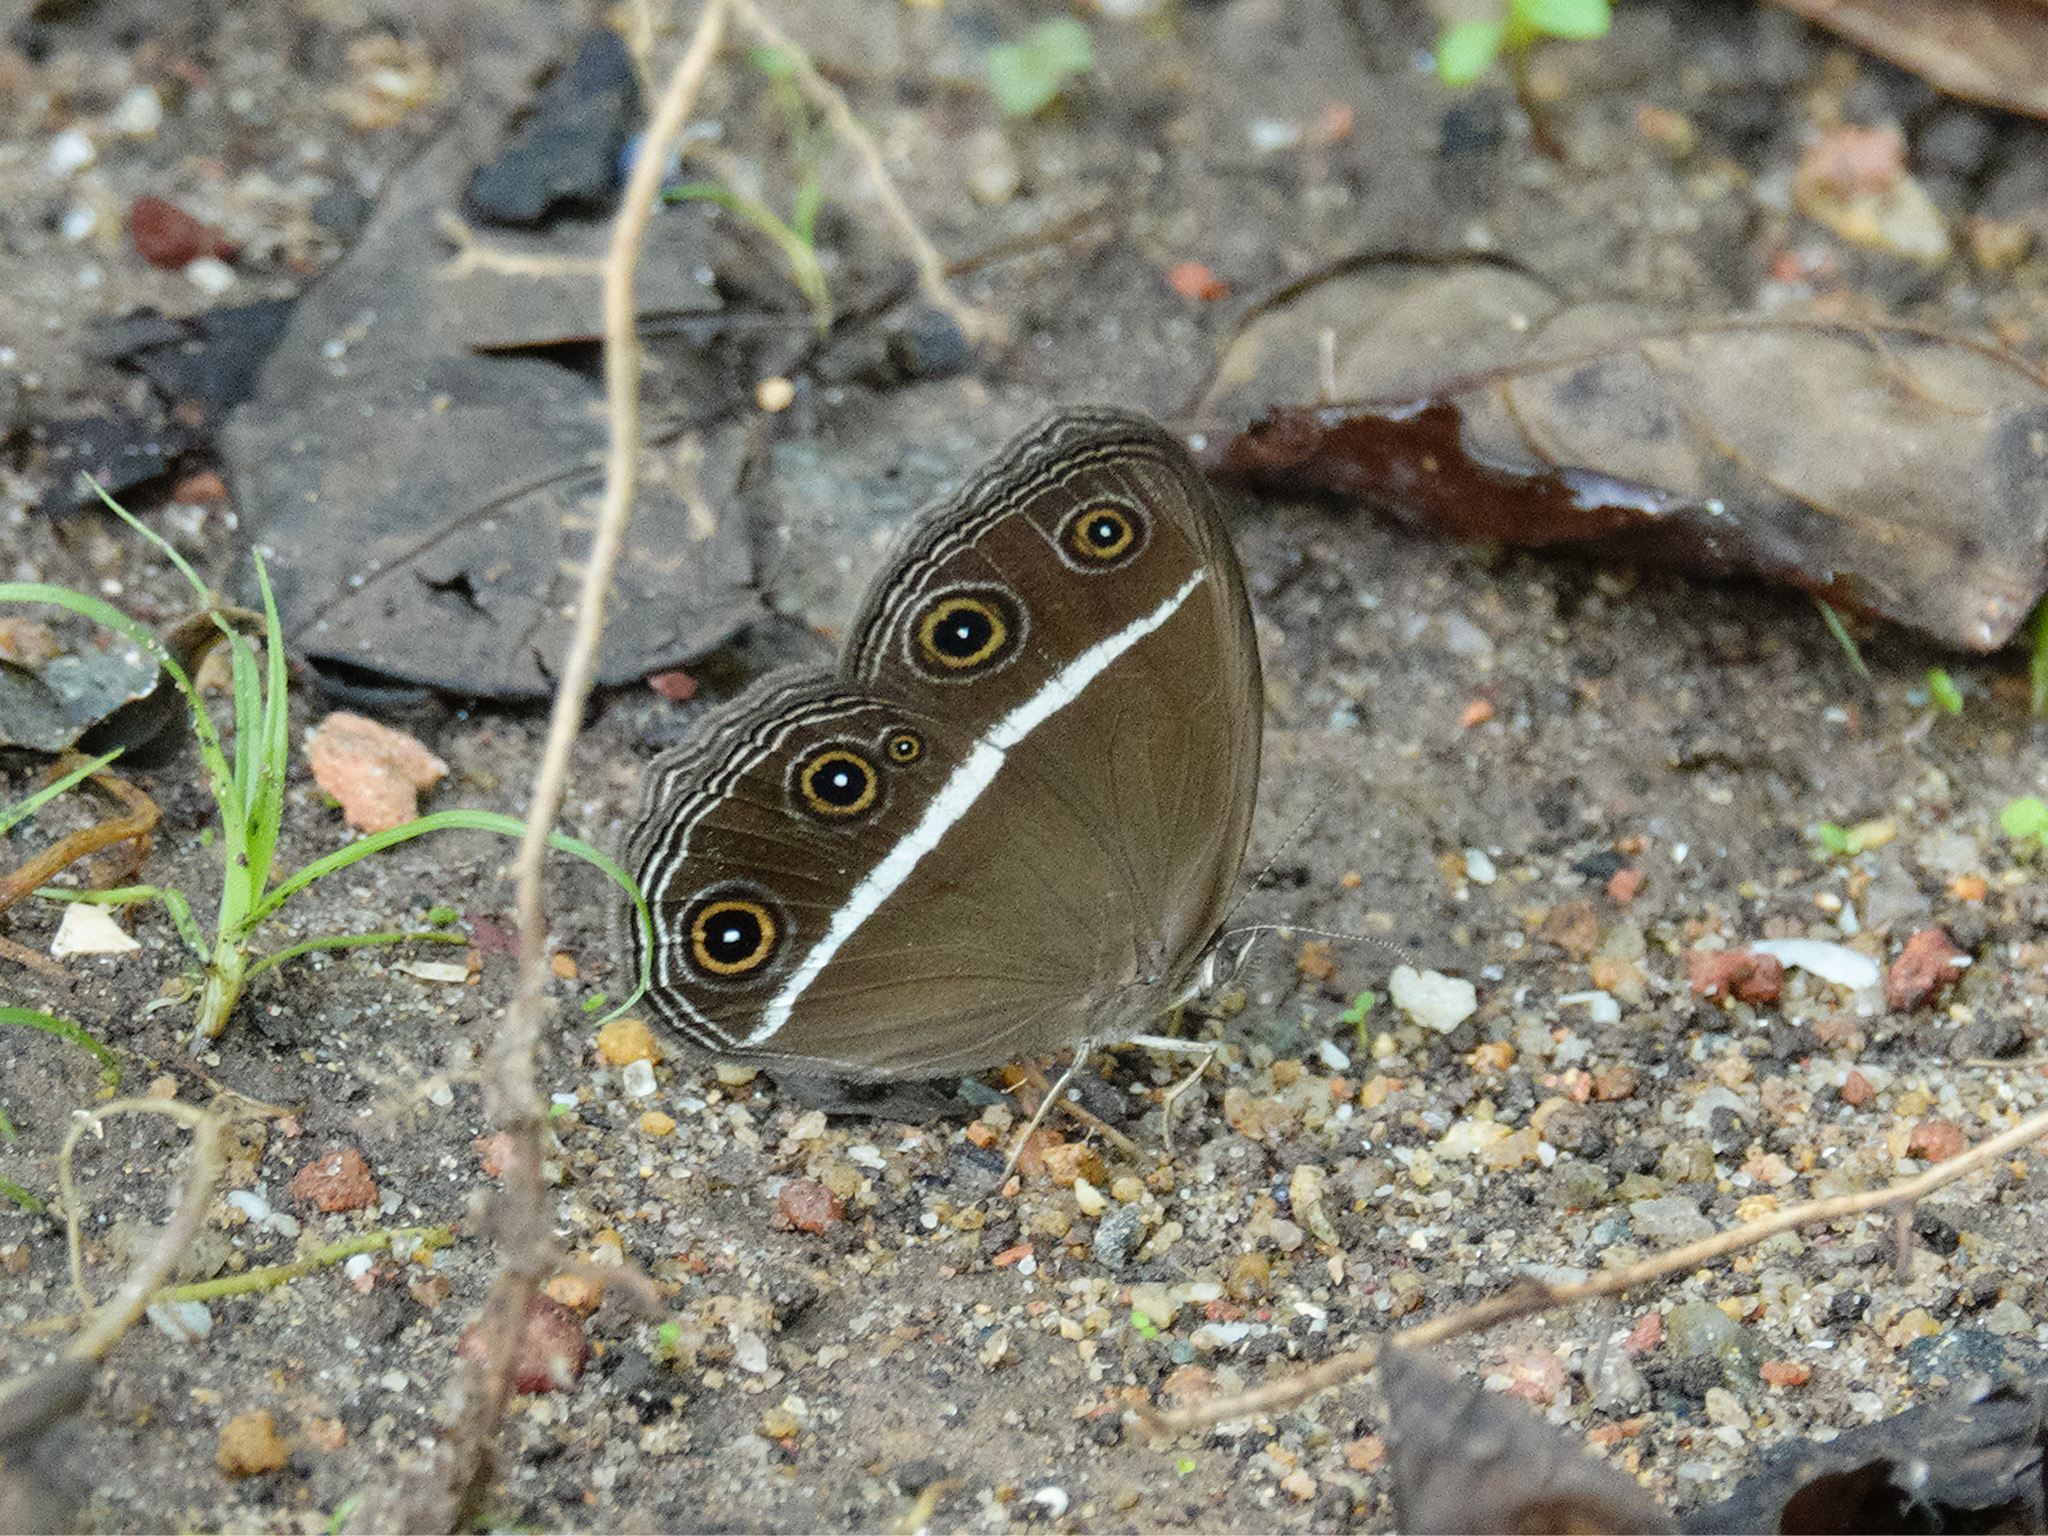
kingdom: Animalia
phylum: Arthropoda
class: Insecta
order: Lepidoptera
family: Nymphalidae
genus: Orsotriaena
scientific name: Orsotriaena medus
